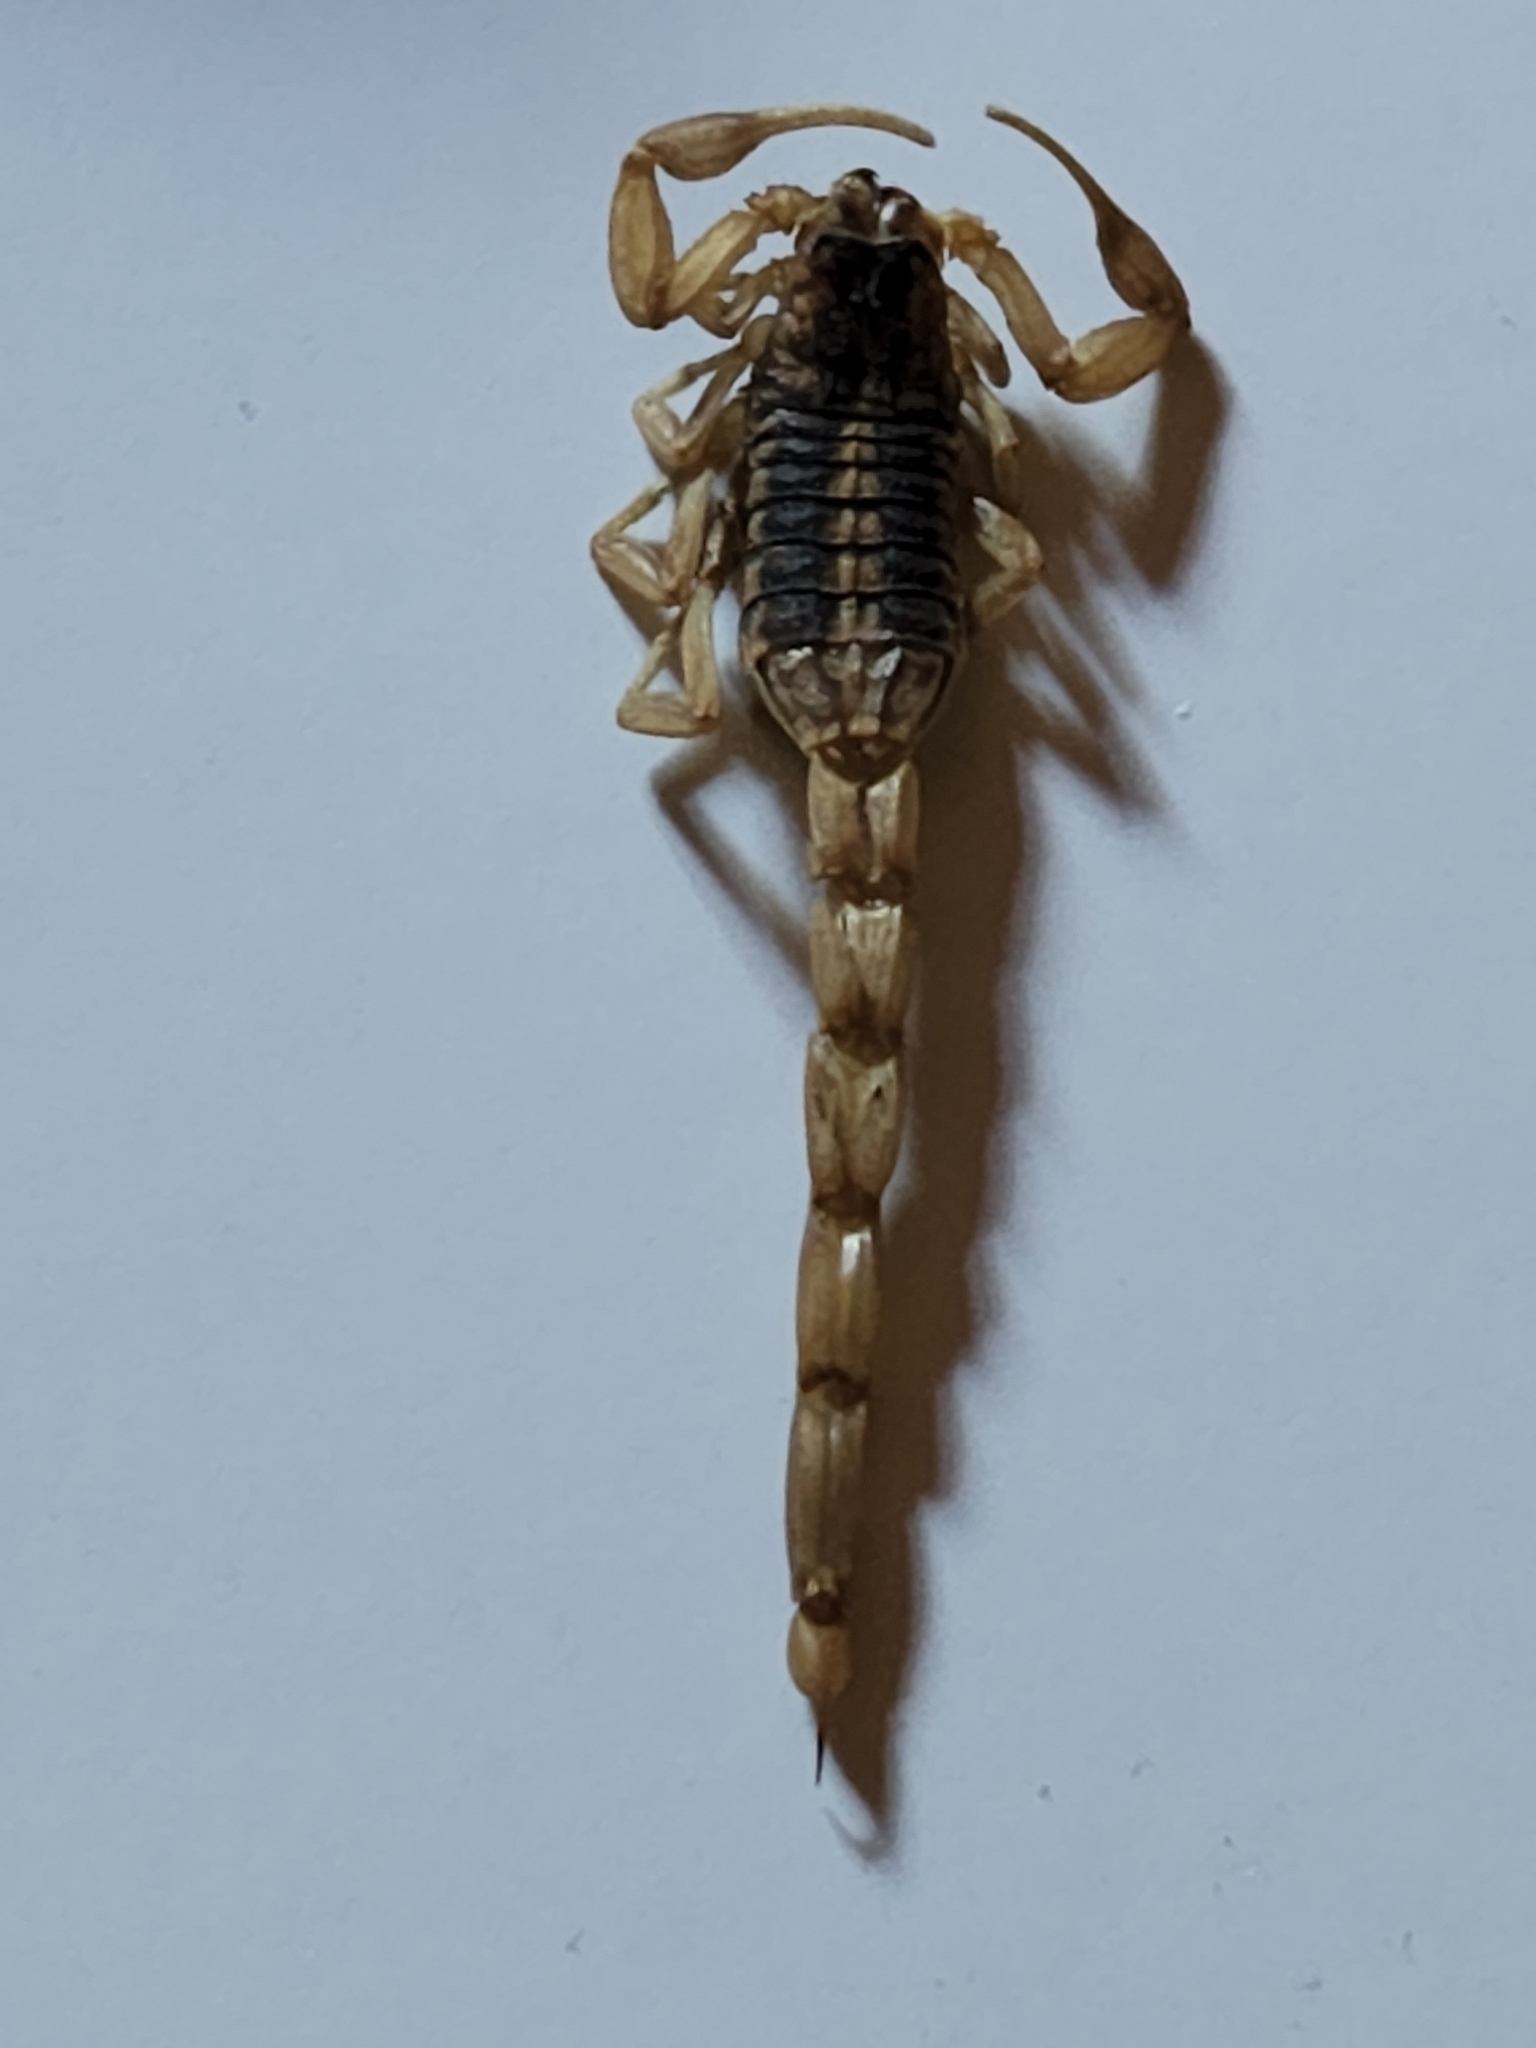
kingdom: Animalia
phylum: Arthropoda
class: Arachnida
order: Scorpiones
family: Buthidae
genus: Centruroides
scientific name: Centruroides vittatus
